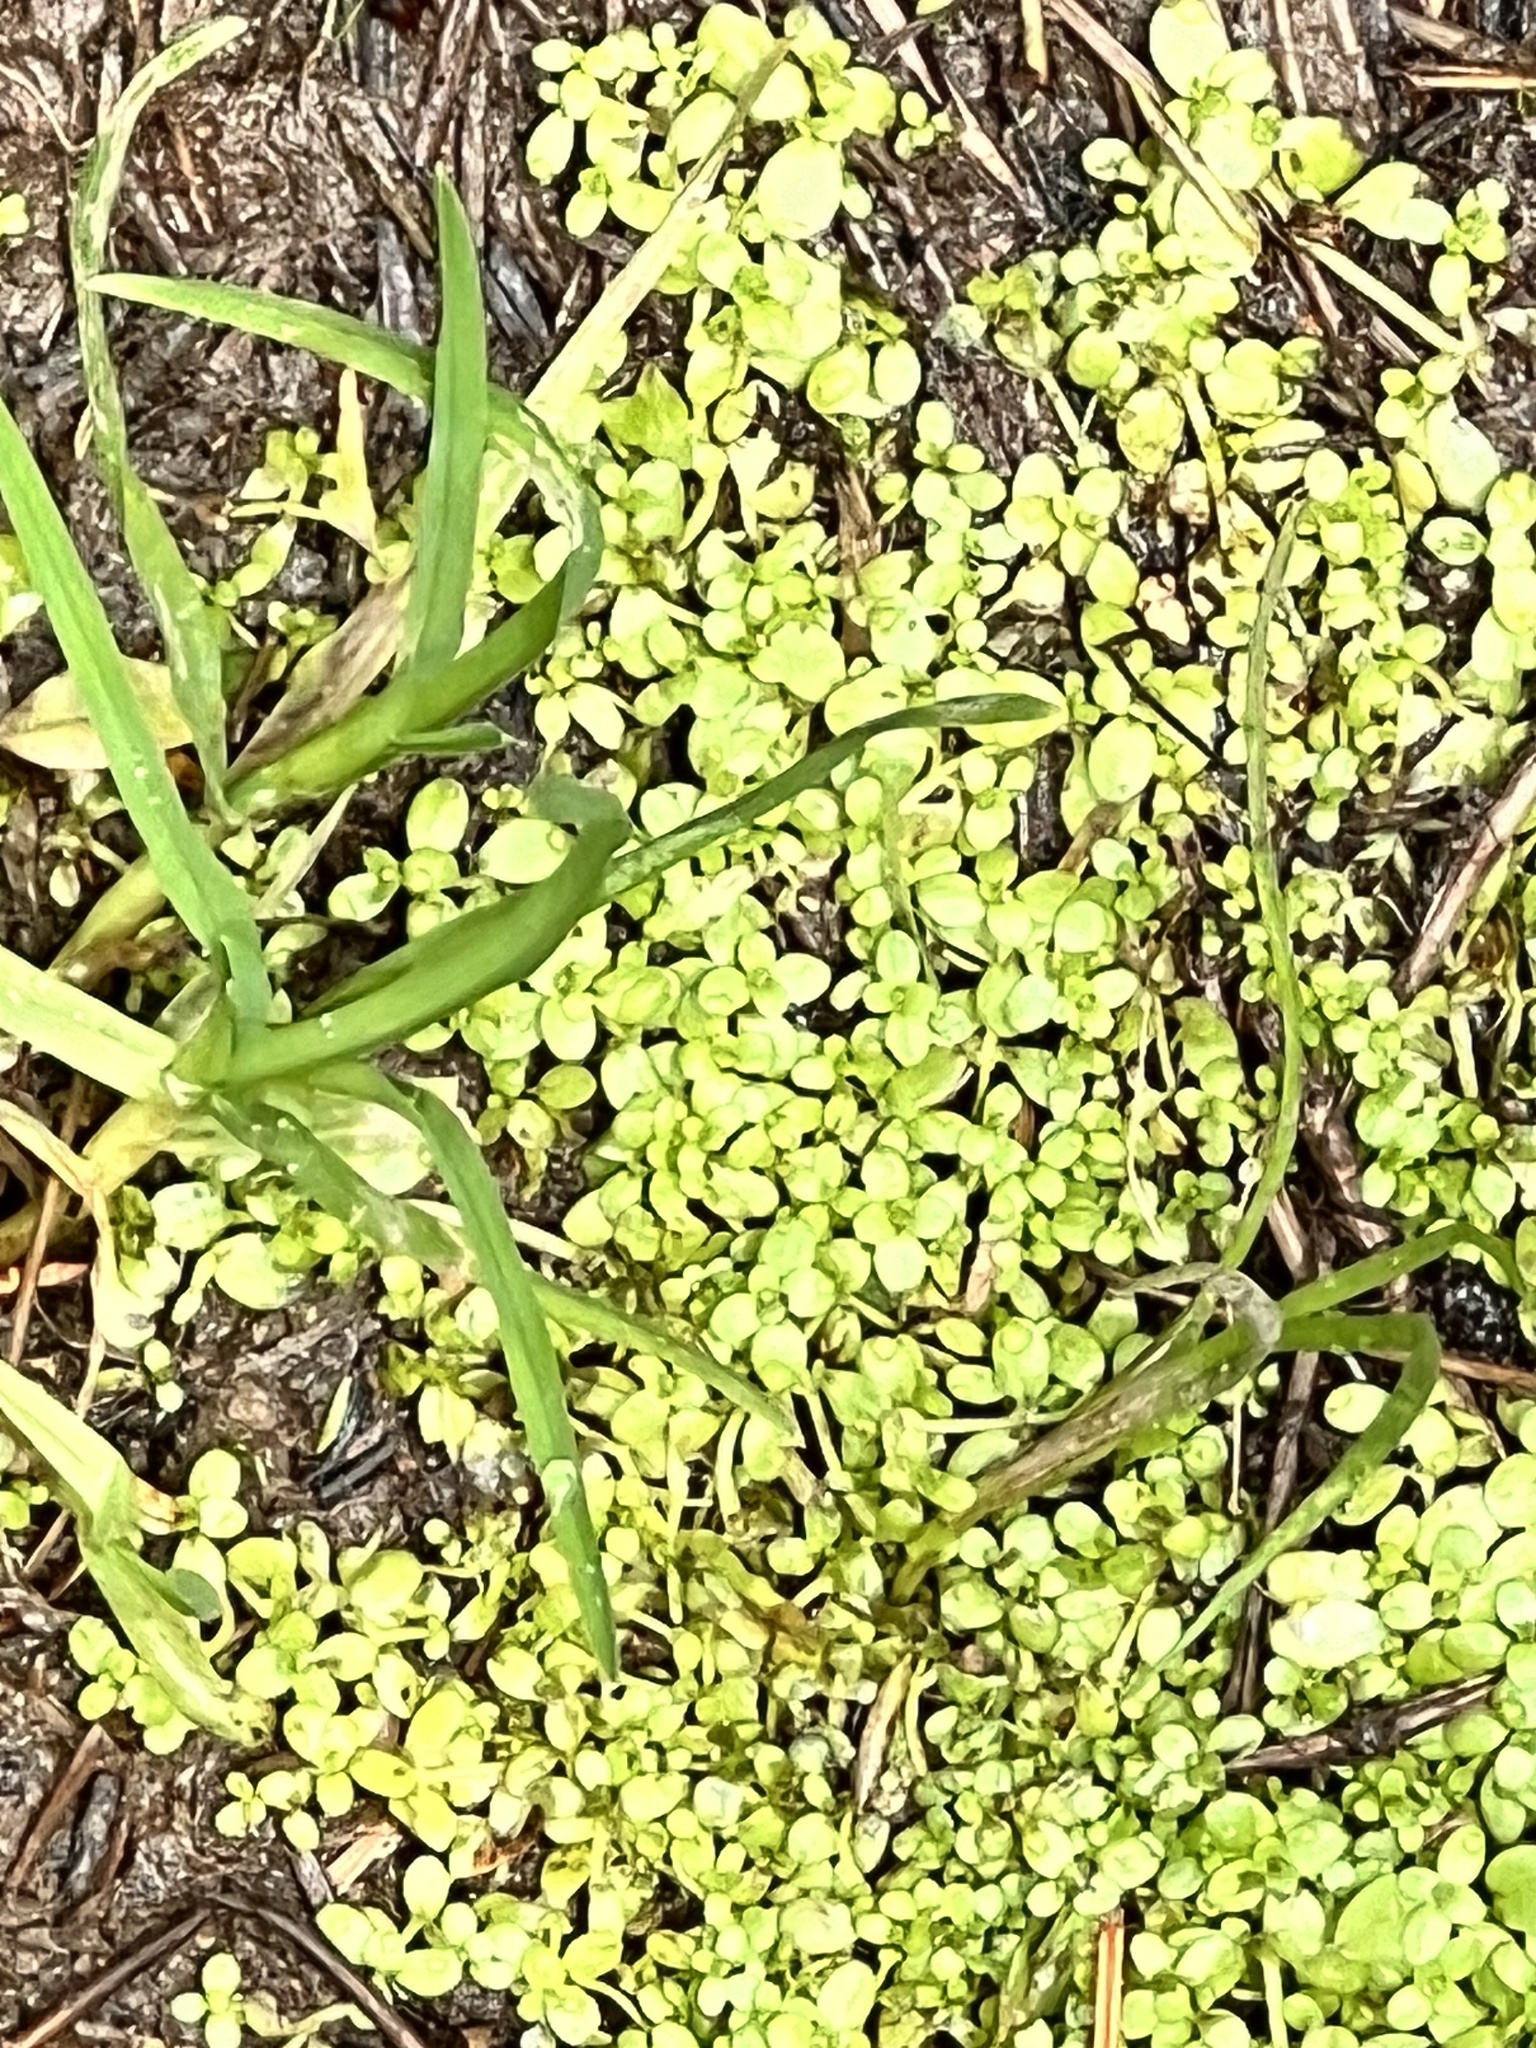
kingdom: Plantae
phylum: Tracheophyta
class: Magnoliopsida
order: Lamiales
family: Plantaginaceae
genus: Callitriche
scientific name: Callitriche stagnalis
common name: Common water-starwort
